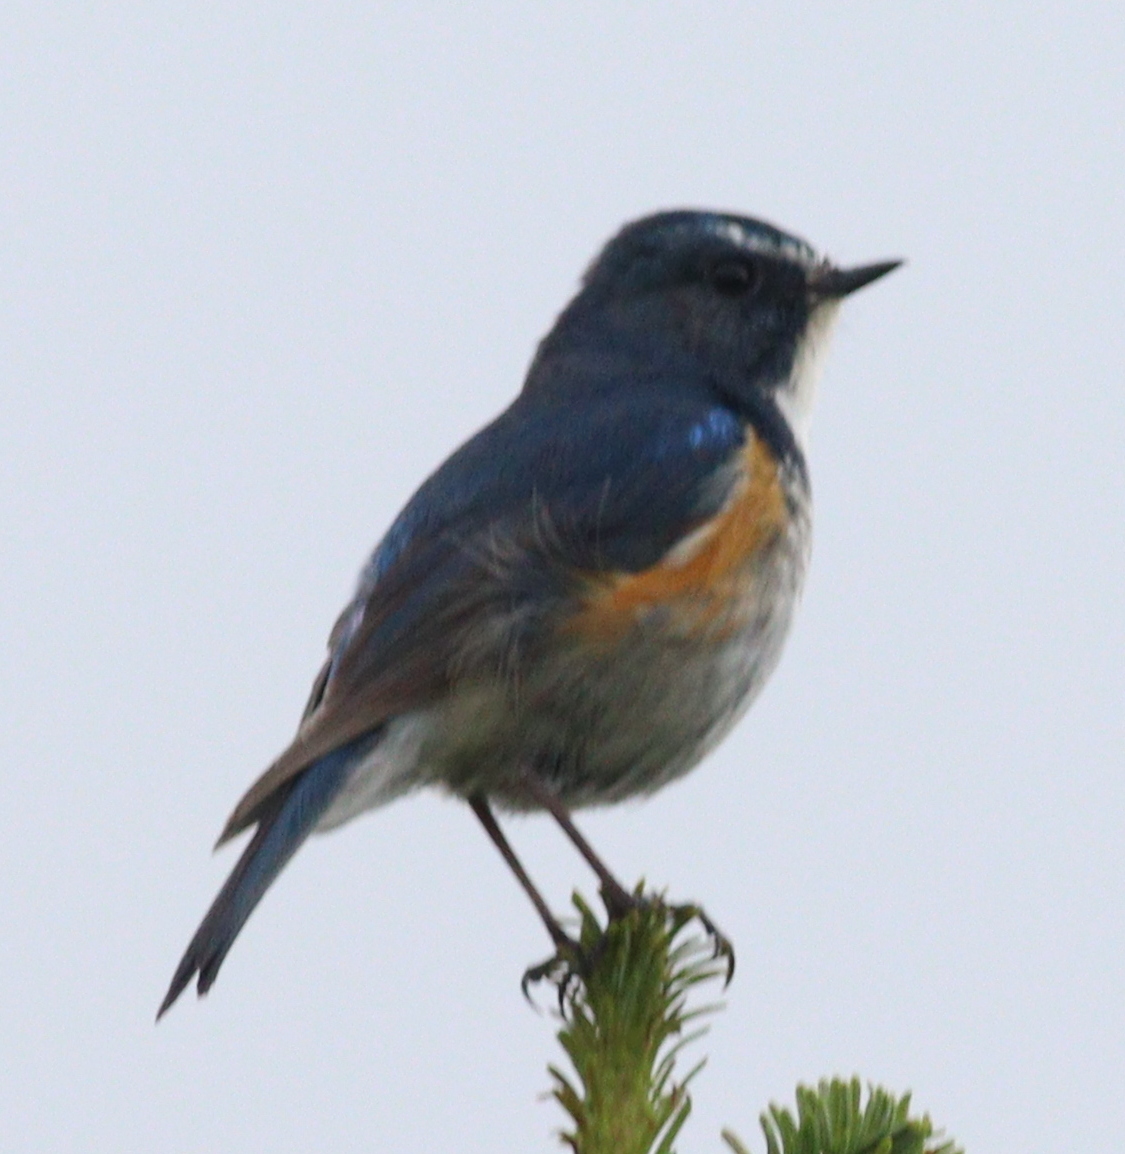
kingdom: Animalia
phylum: Chordata
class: Aves
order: Passeriformes
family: Muscicapidae
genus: Tarsiger
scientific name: Tarsiger cyanurus
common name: Red-flanked bluetail
